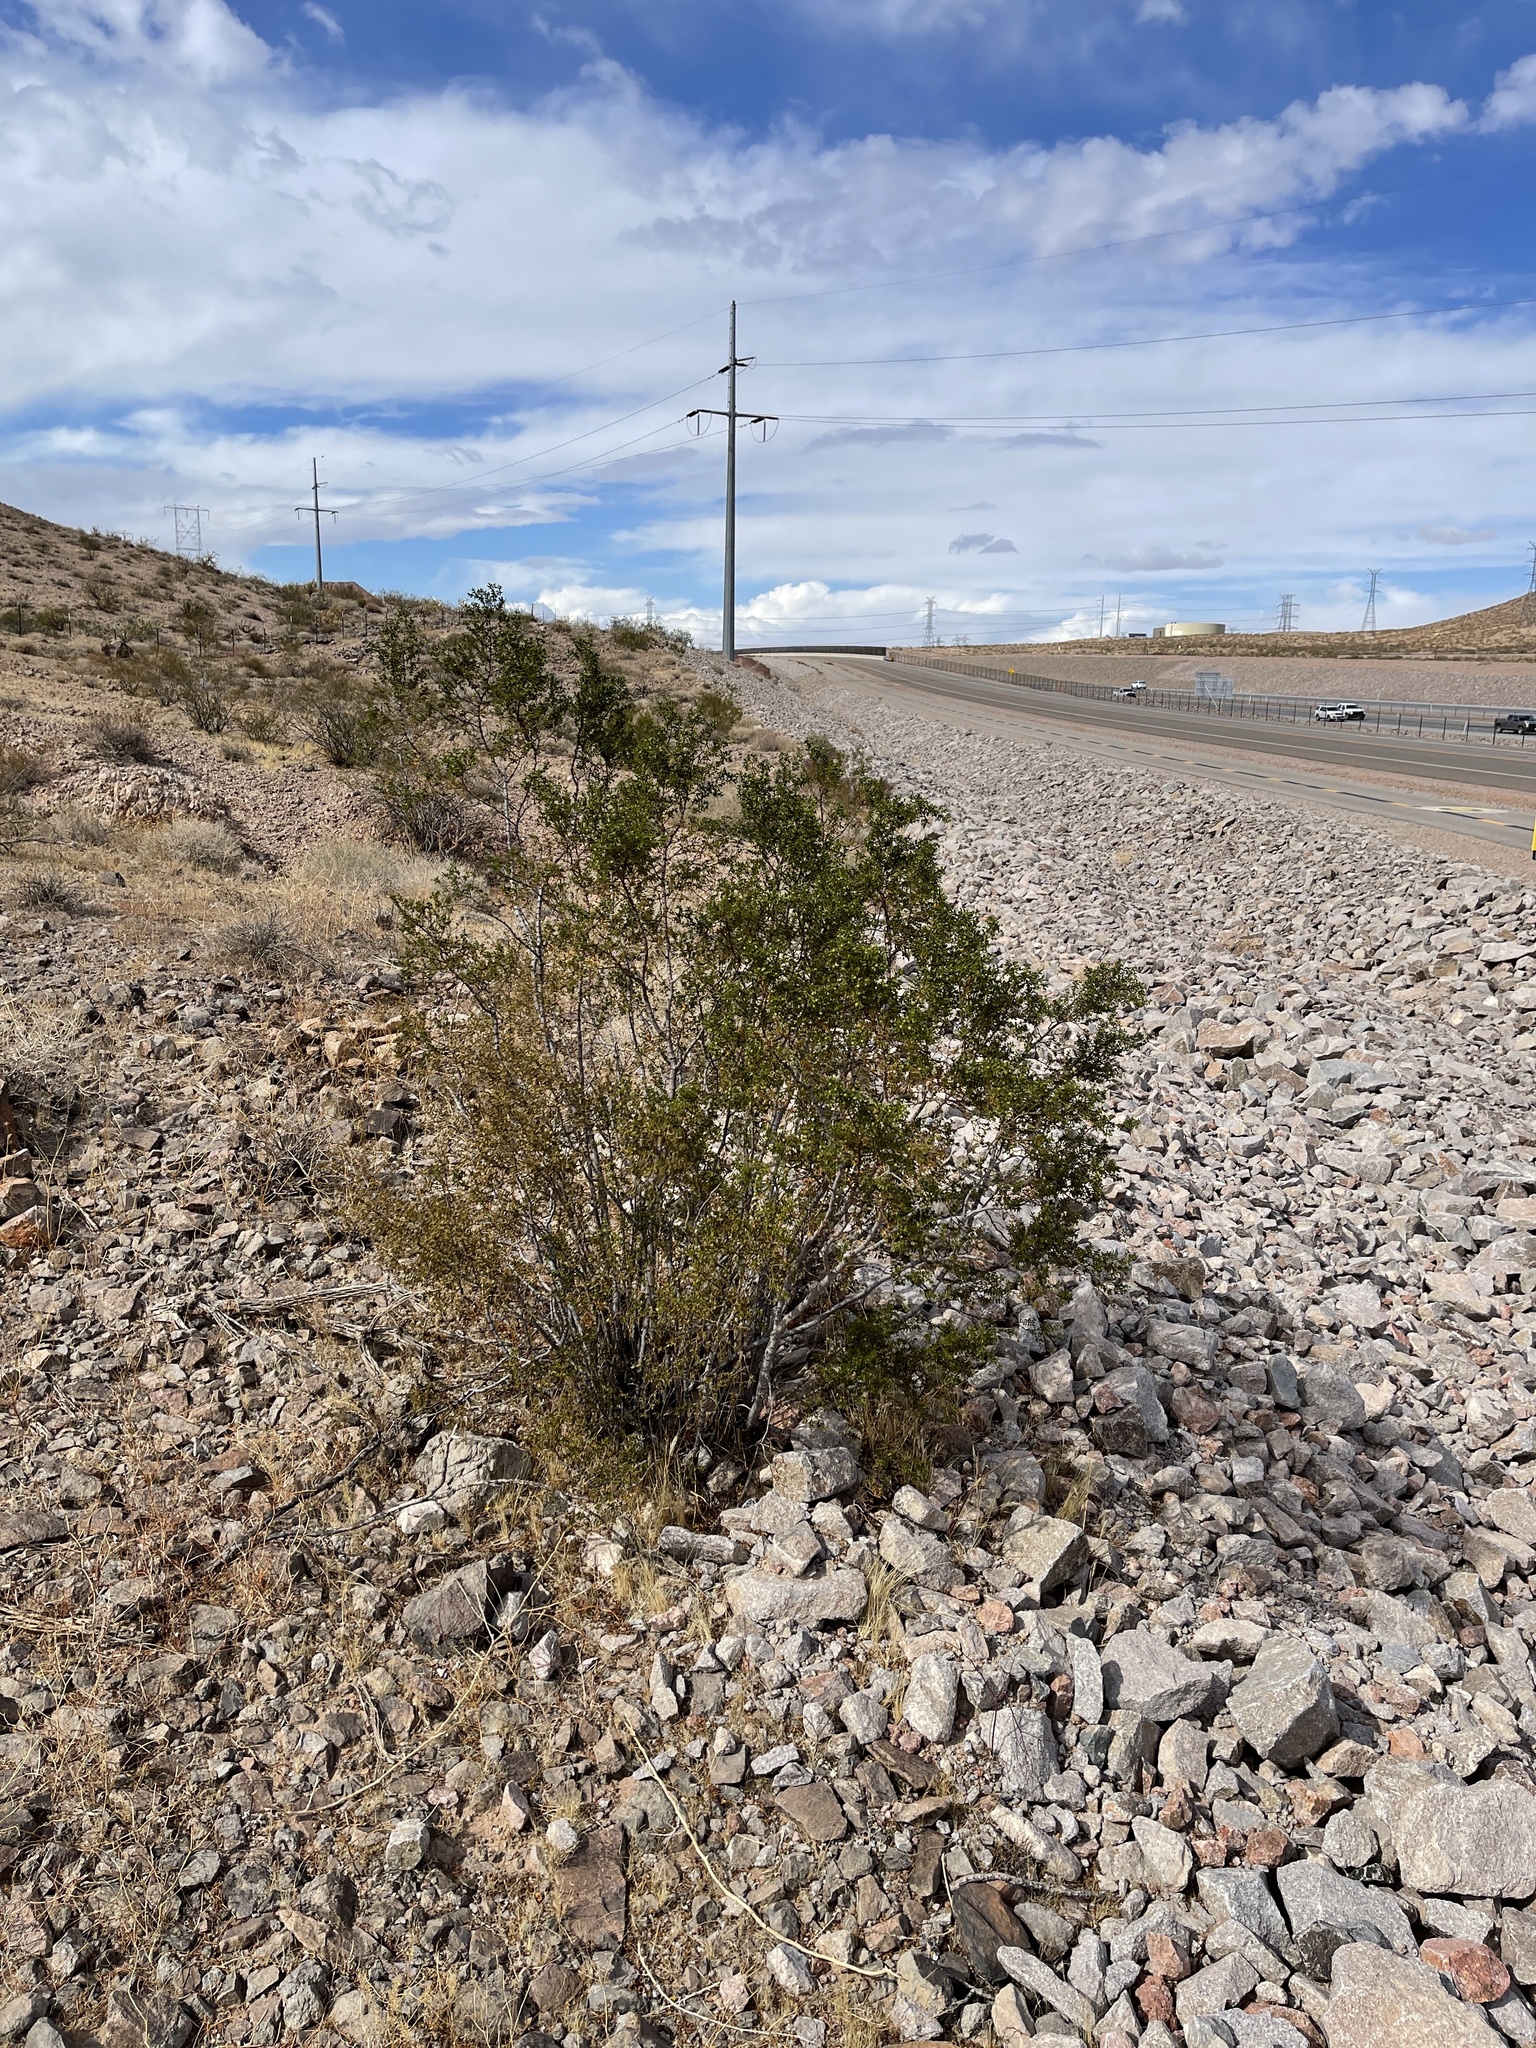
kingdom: Plantae
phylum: Tracheophyta
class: Magnoliopsida
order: Zygophyllales
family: Zygophyllaceae
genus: Larrea
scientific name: Larrea tridentata
